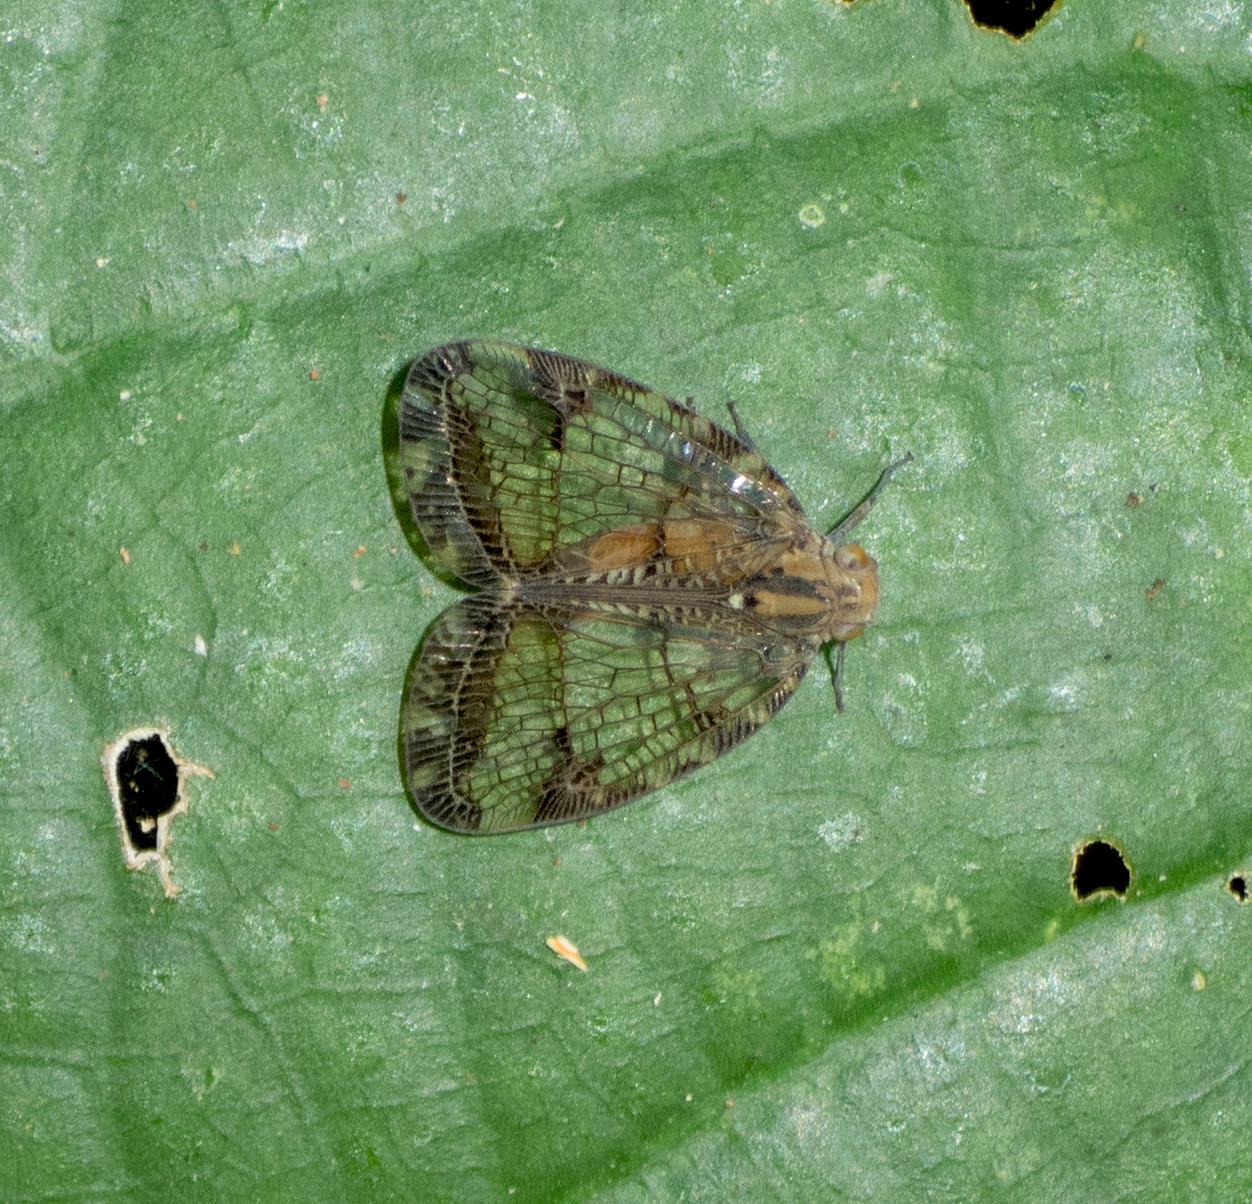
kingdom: Animalia
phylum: Arthropoda
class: Insecta
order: Hemiptera
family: Nogodinidae
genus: Biolleyana
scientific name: Biolleyana pictifrons
